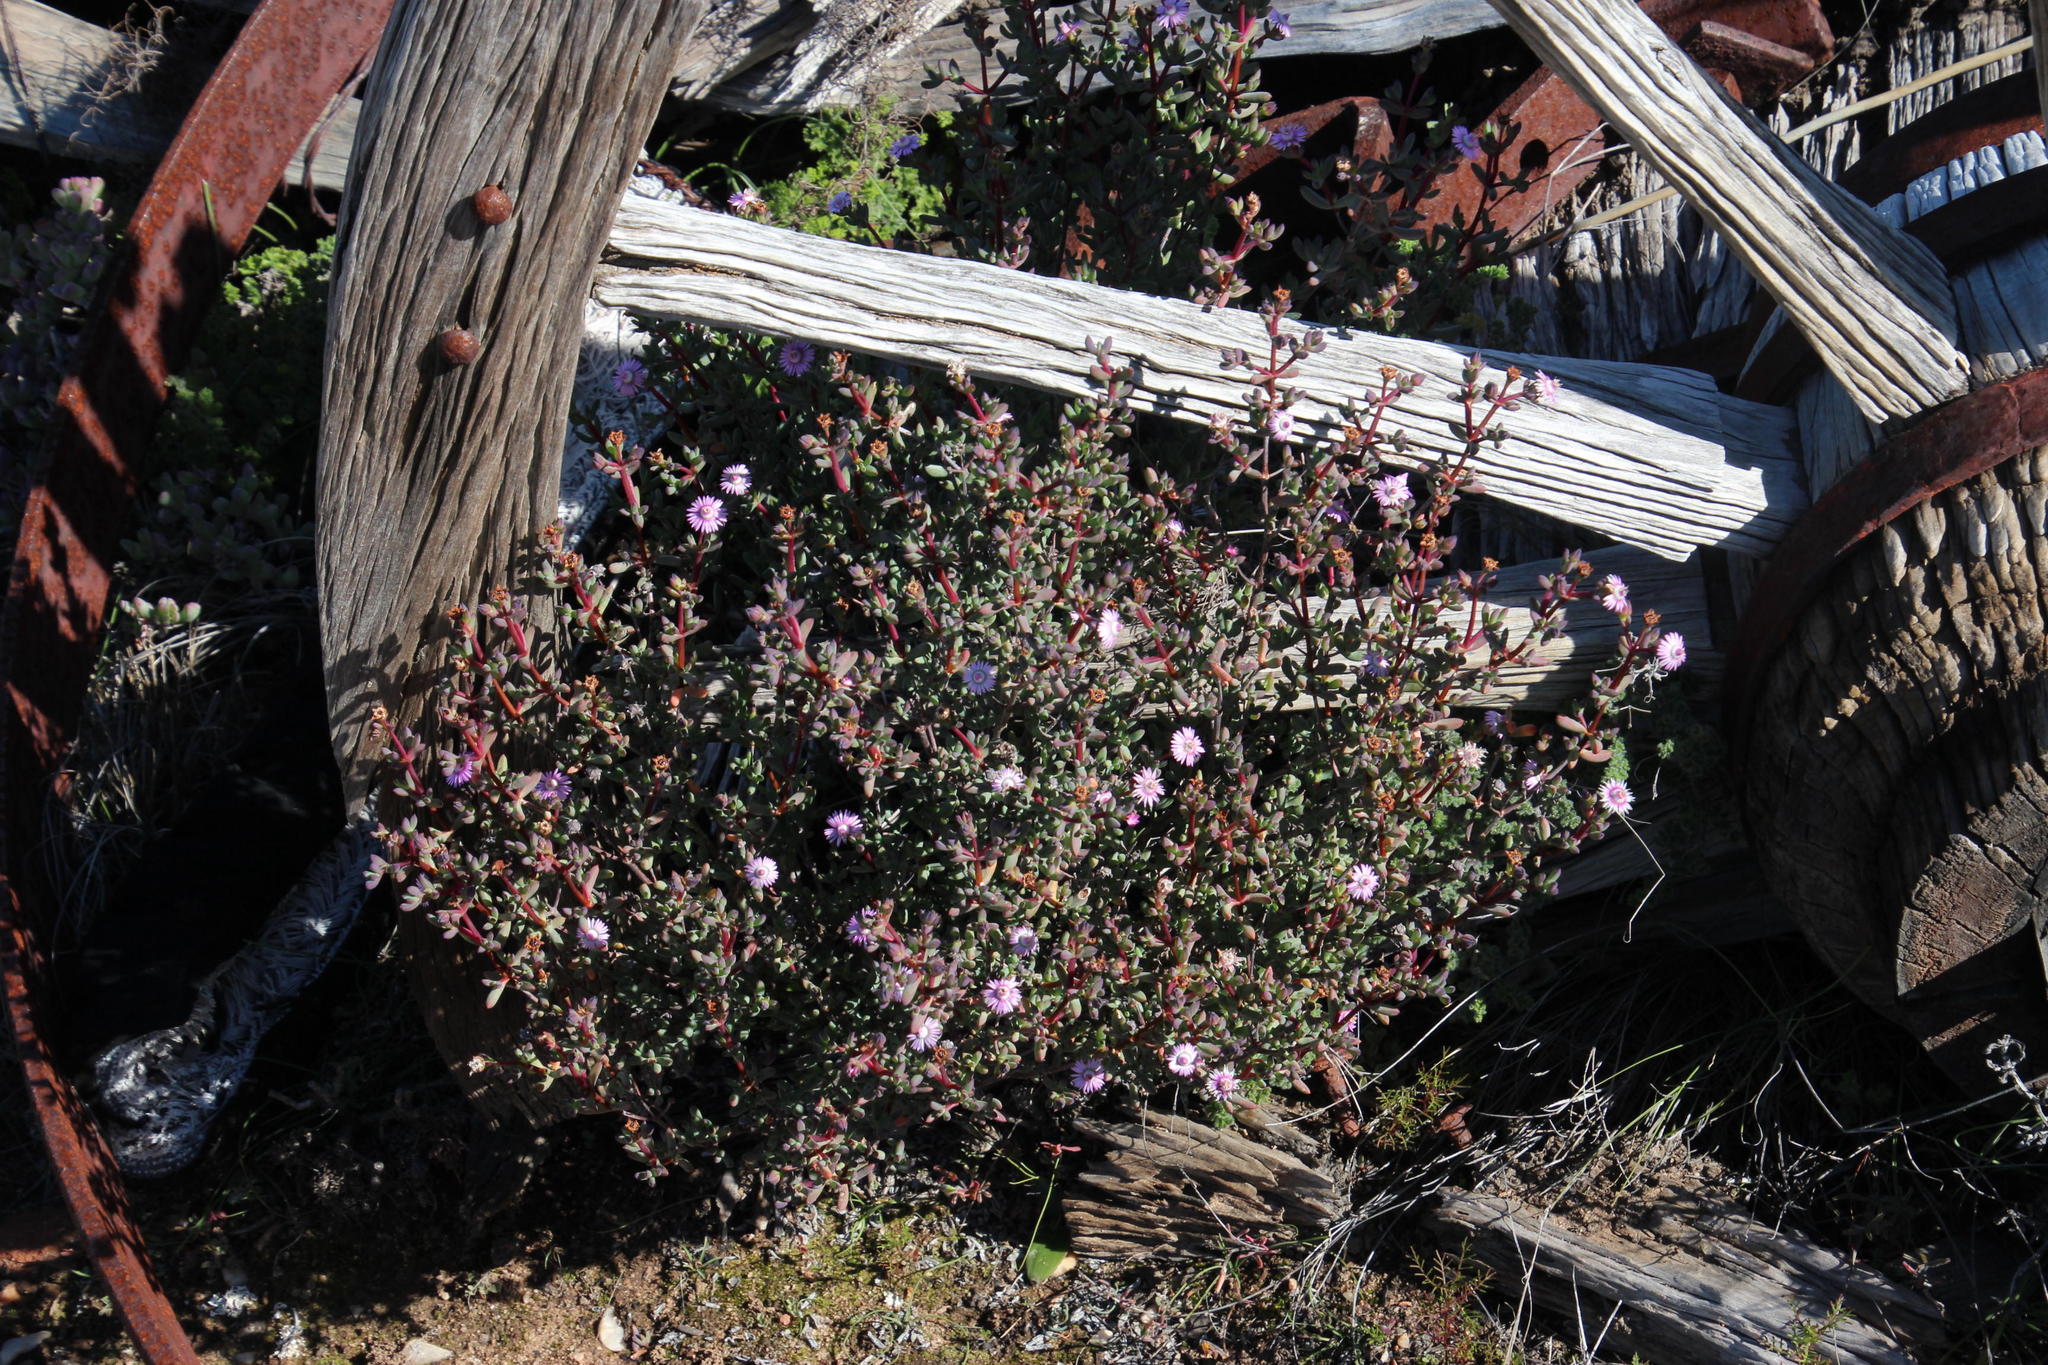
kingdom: Plantae
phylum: Tracheophyta
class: Magnoliopsida
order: Caryophyllales
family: Aizoaceae
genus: Ruschia
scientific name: Ruschia lapidicola
